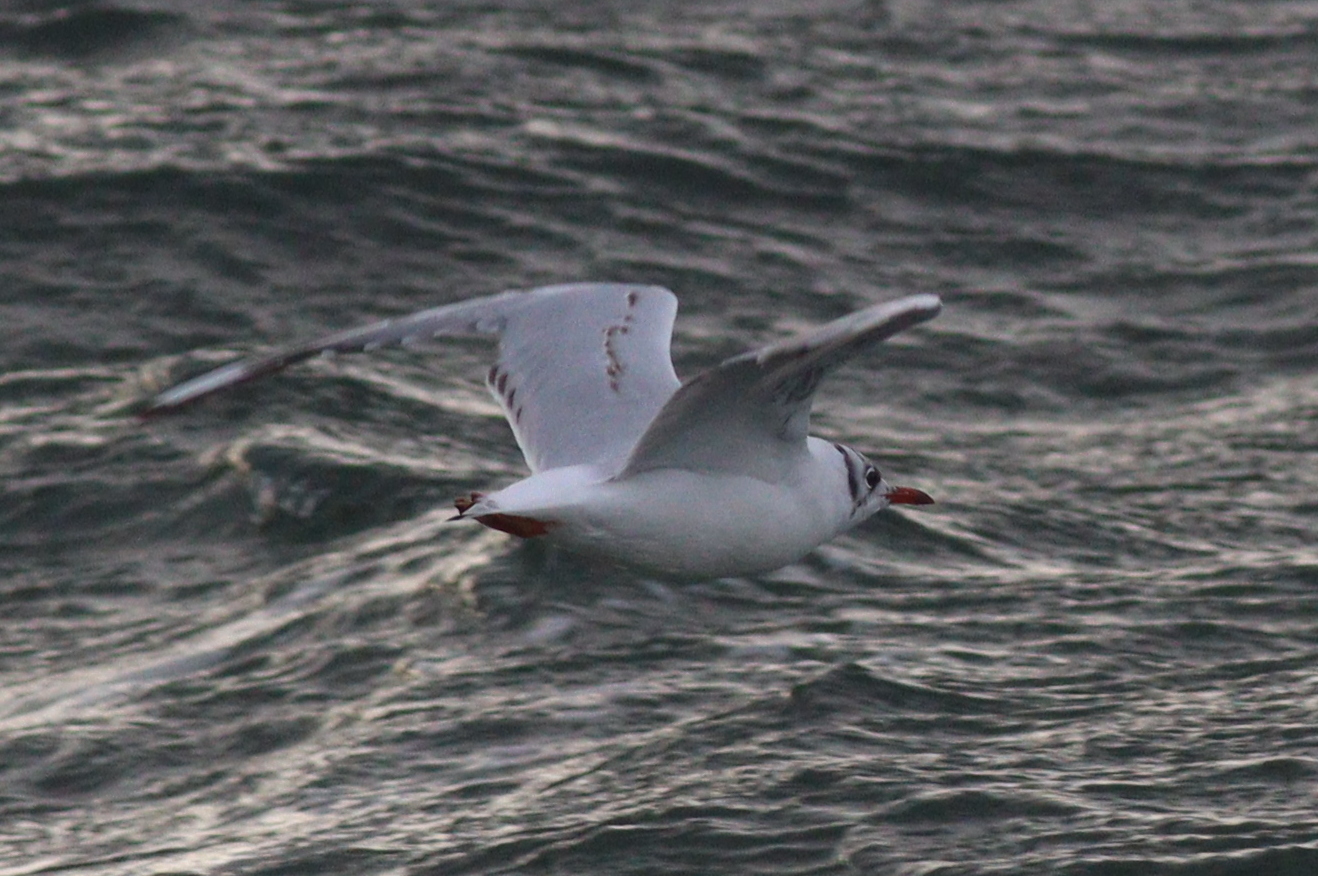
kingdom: Animalia
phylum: Chordata
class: Aves
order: Charadriiformes
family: Laridae
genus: Chroicocephalus
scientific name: Chroicocephalus ridibundus
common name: Black-headed gull
